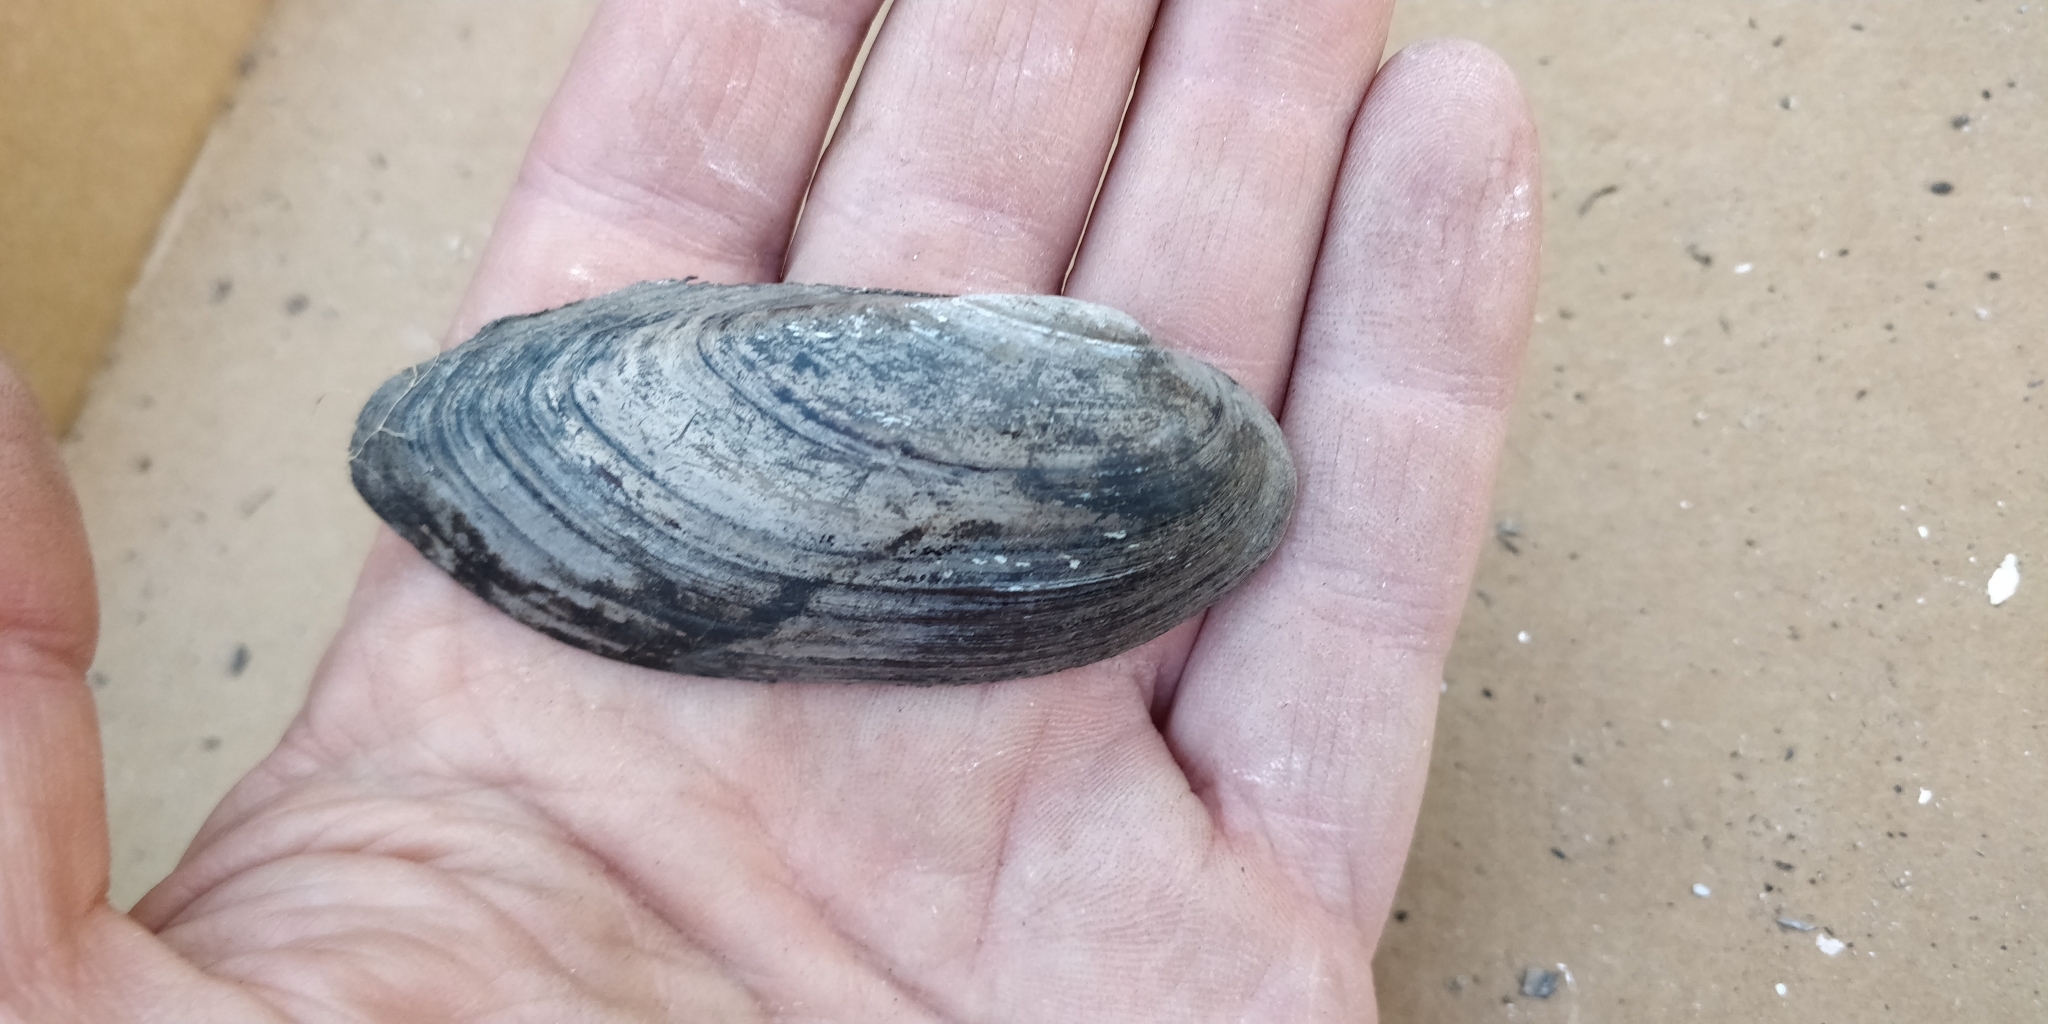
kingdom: Animalia
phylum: Mollusca
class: Bivalvia
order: Unionida
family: Unionidae
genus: Lampsilis
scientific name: Lampsilis teres
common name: Yellow sandshell
